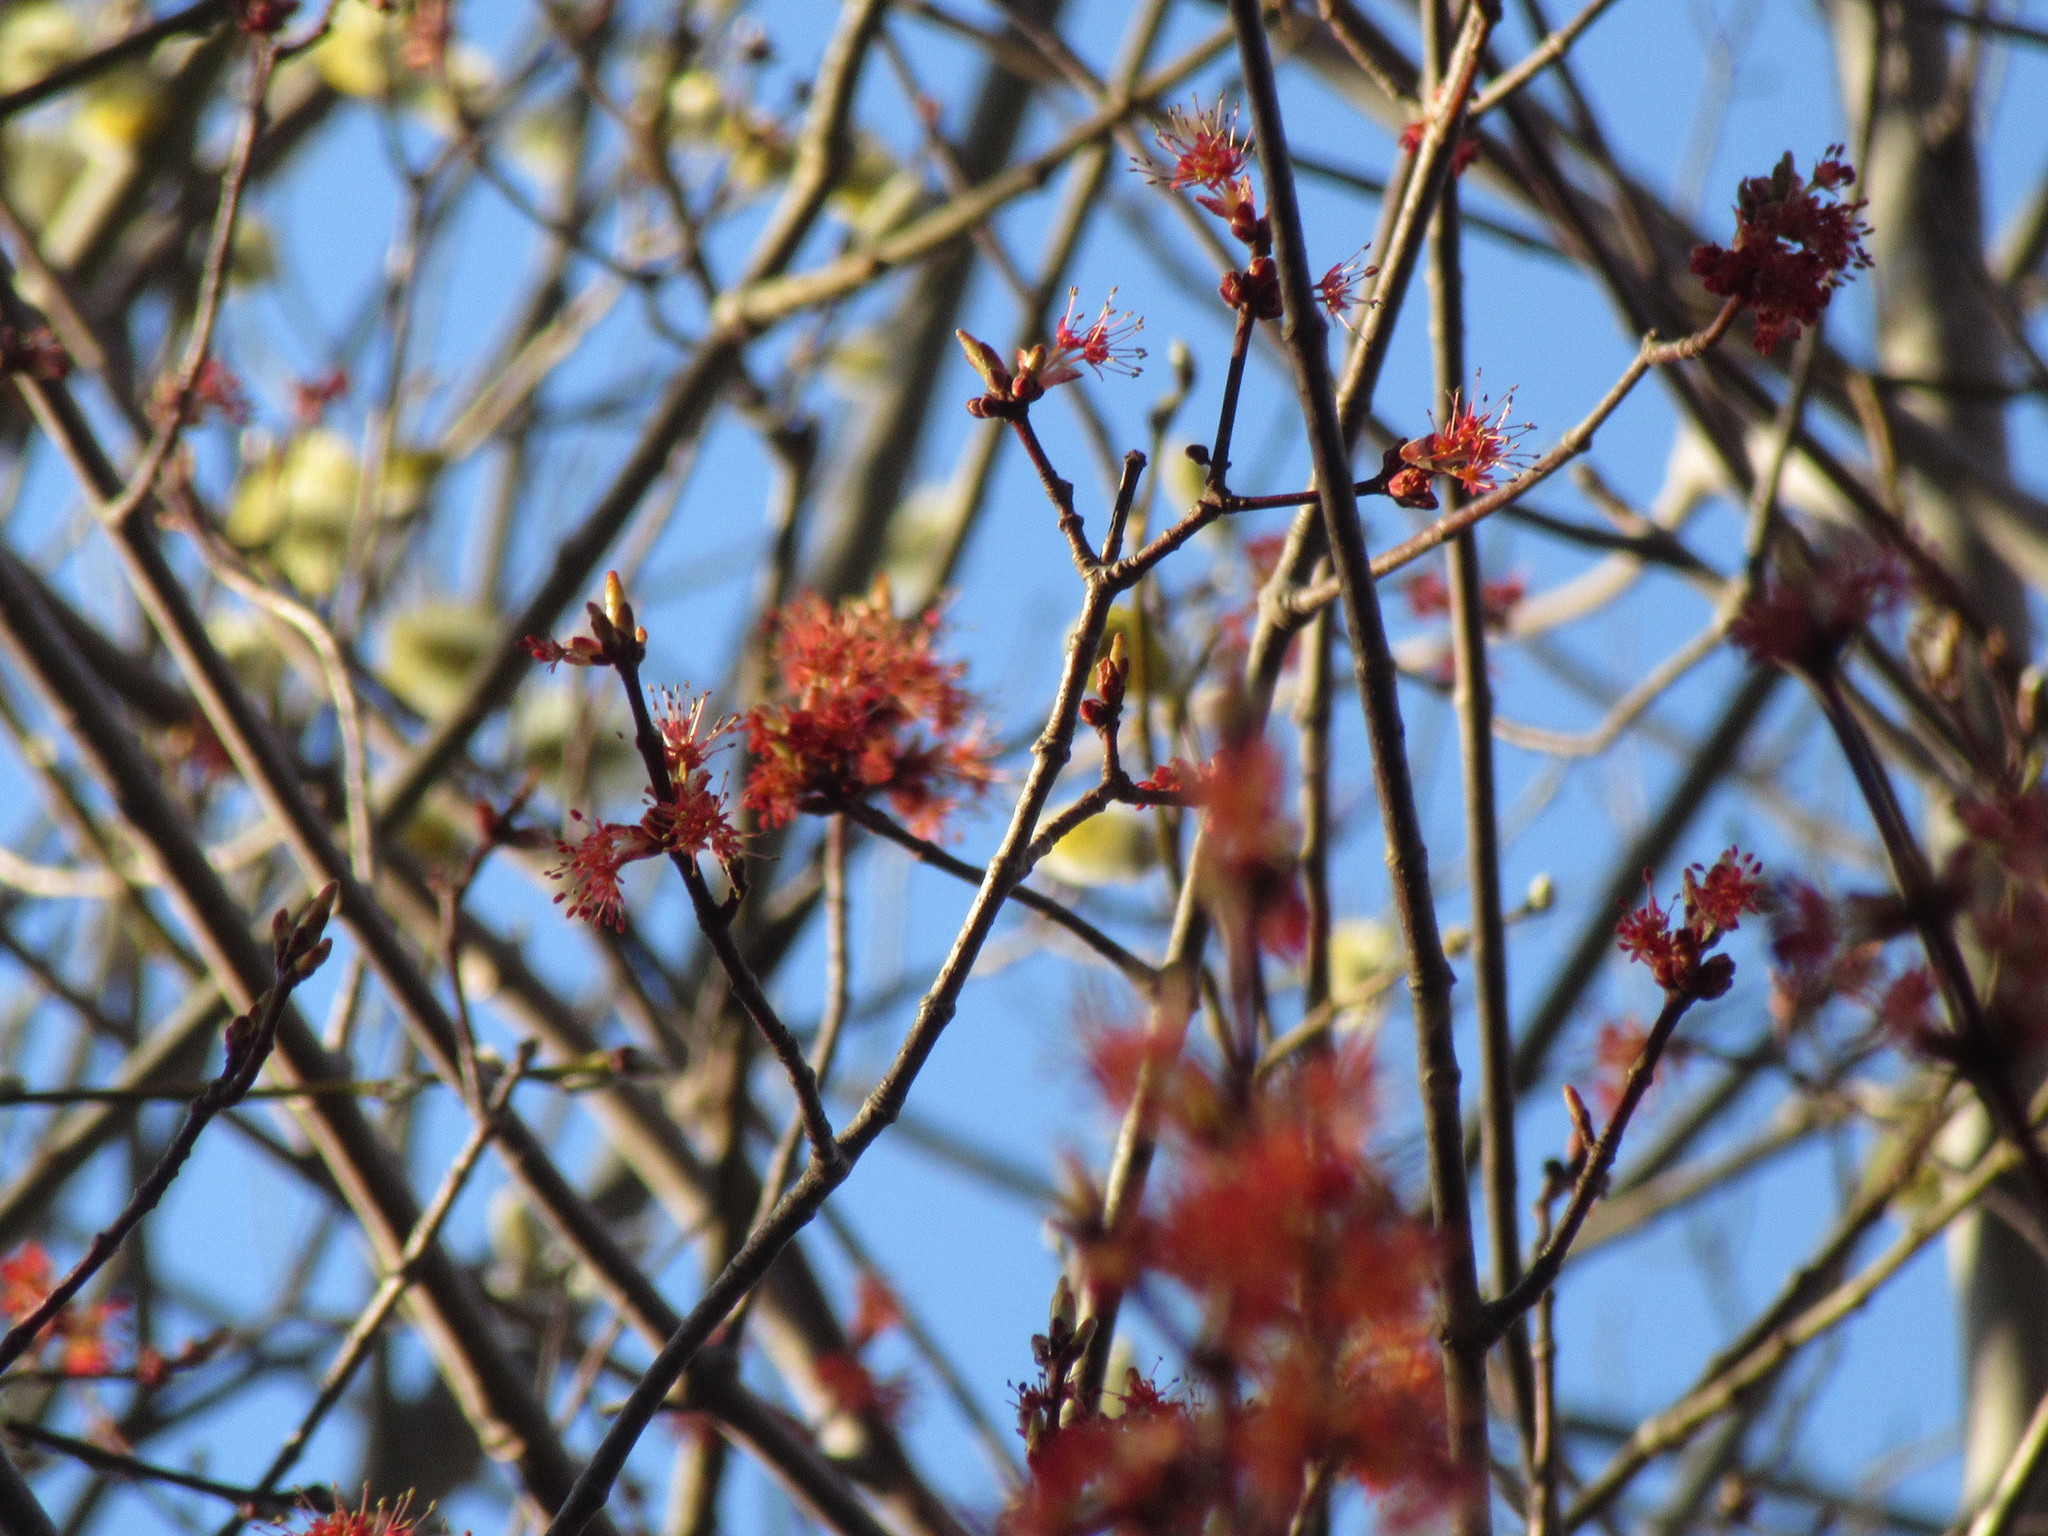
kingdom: Plantae
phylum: Tracheophyta
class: Magnoliopsida
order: Sapindales
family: Sapindaceae
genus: Acer
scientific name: Acer rubrum
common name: Red maple
